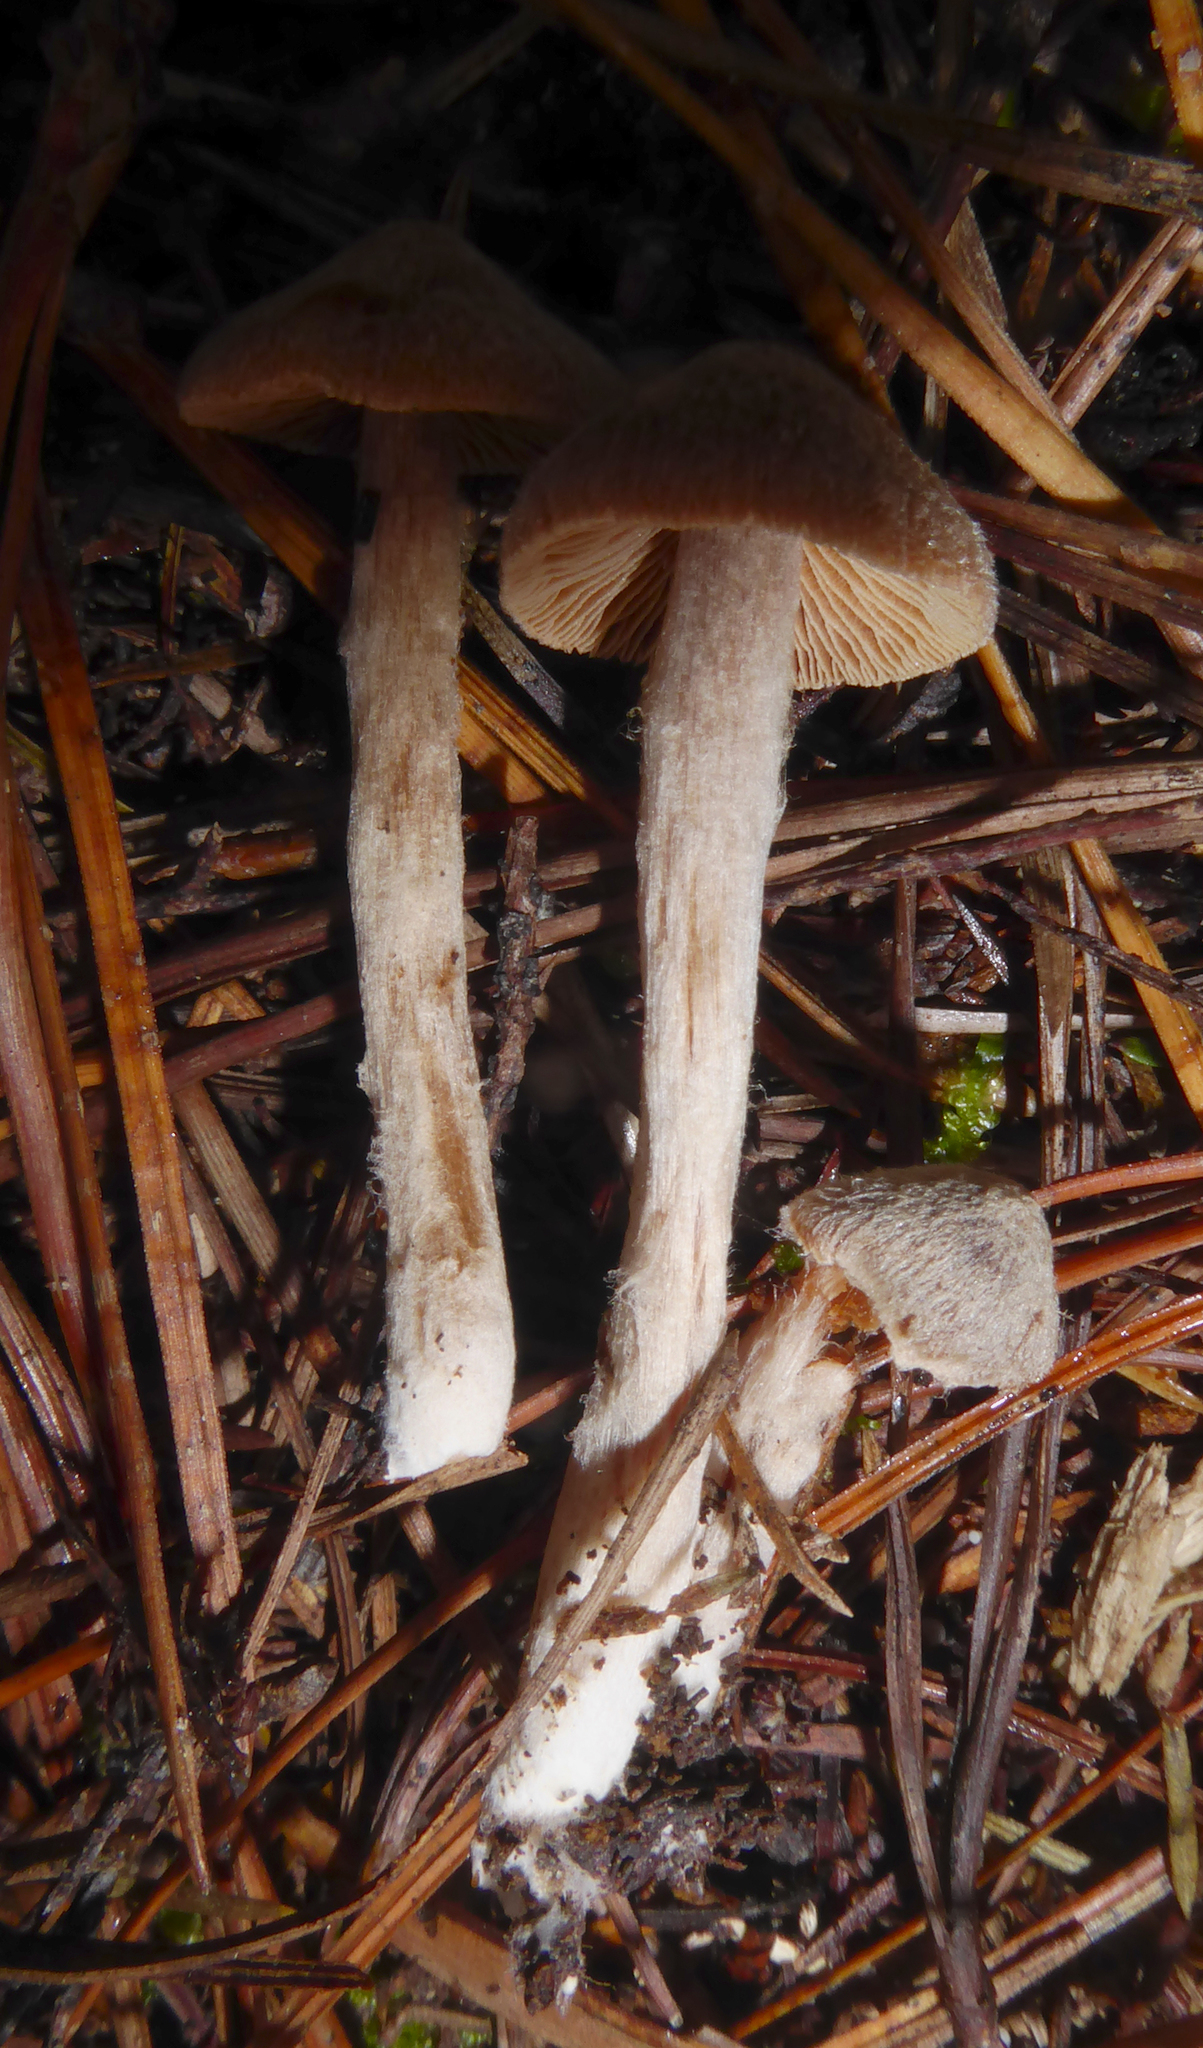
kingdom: Fungi
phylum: Basidiomycota
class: Agaricomycetes
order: Agaricales
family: Cortinariaceae
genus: Cortinarius
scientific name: Cortinarius
